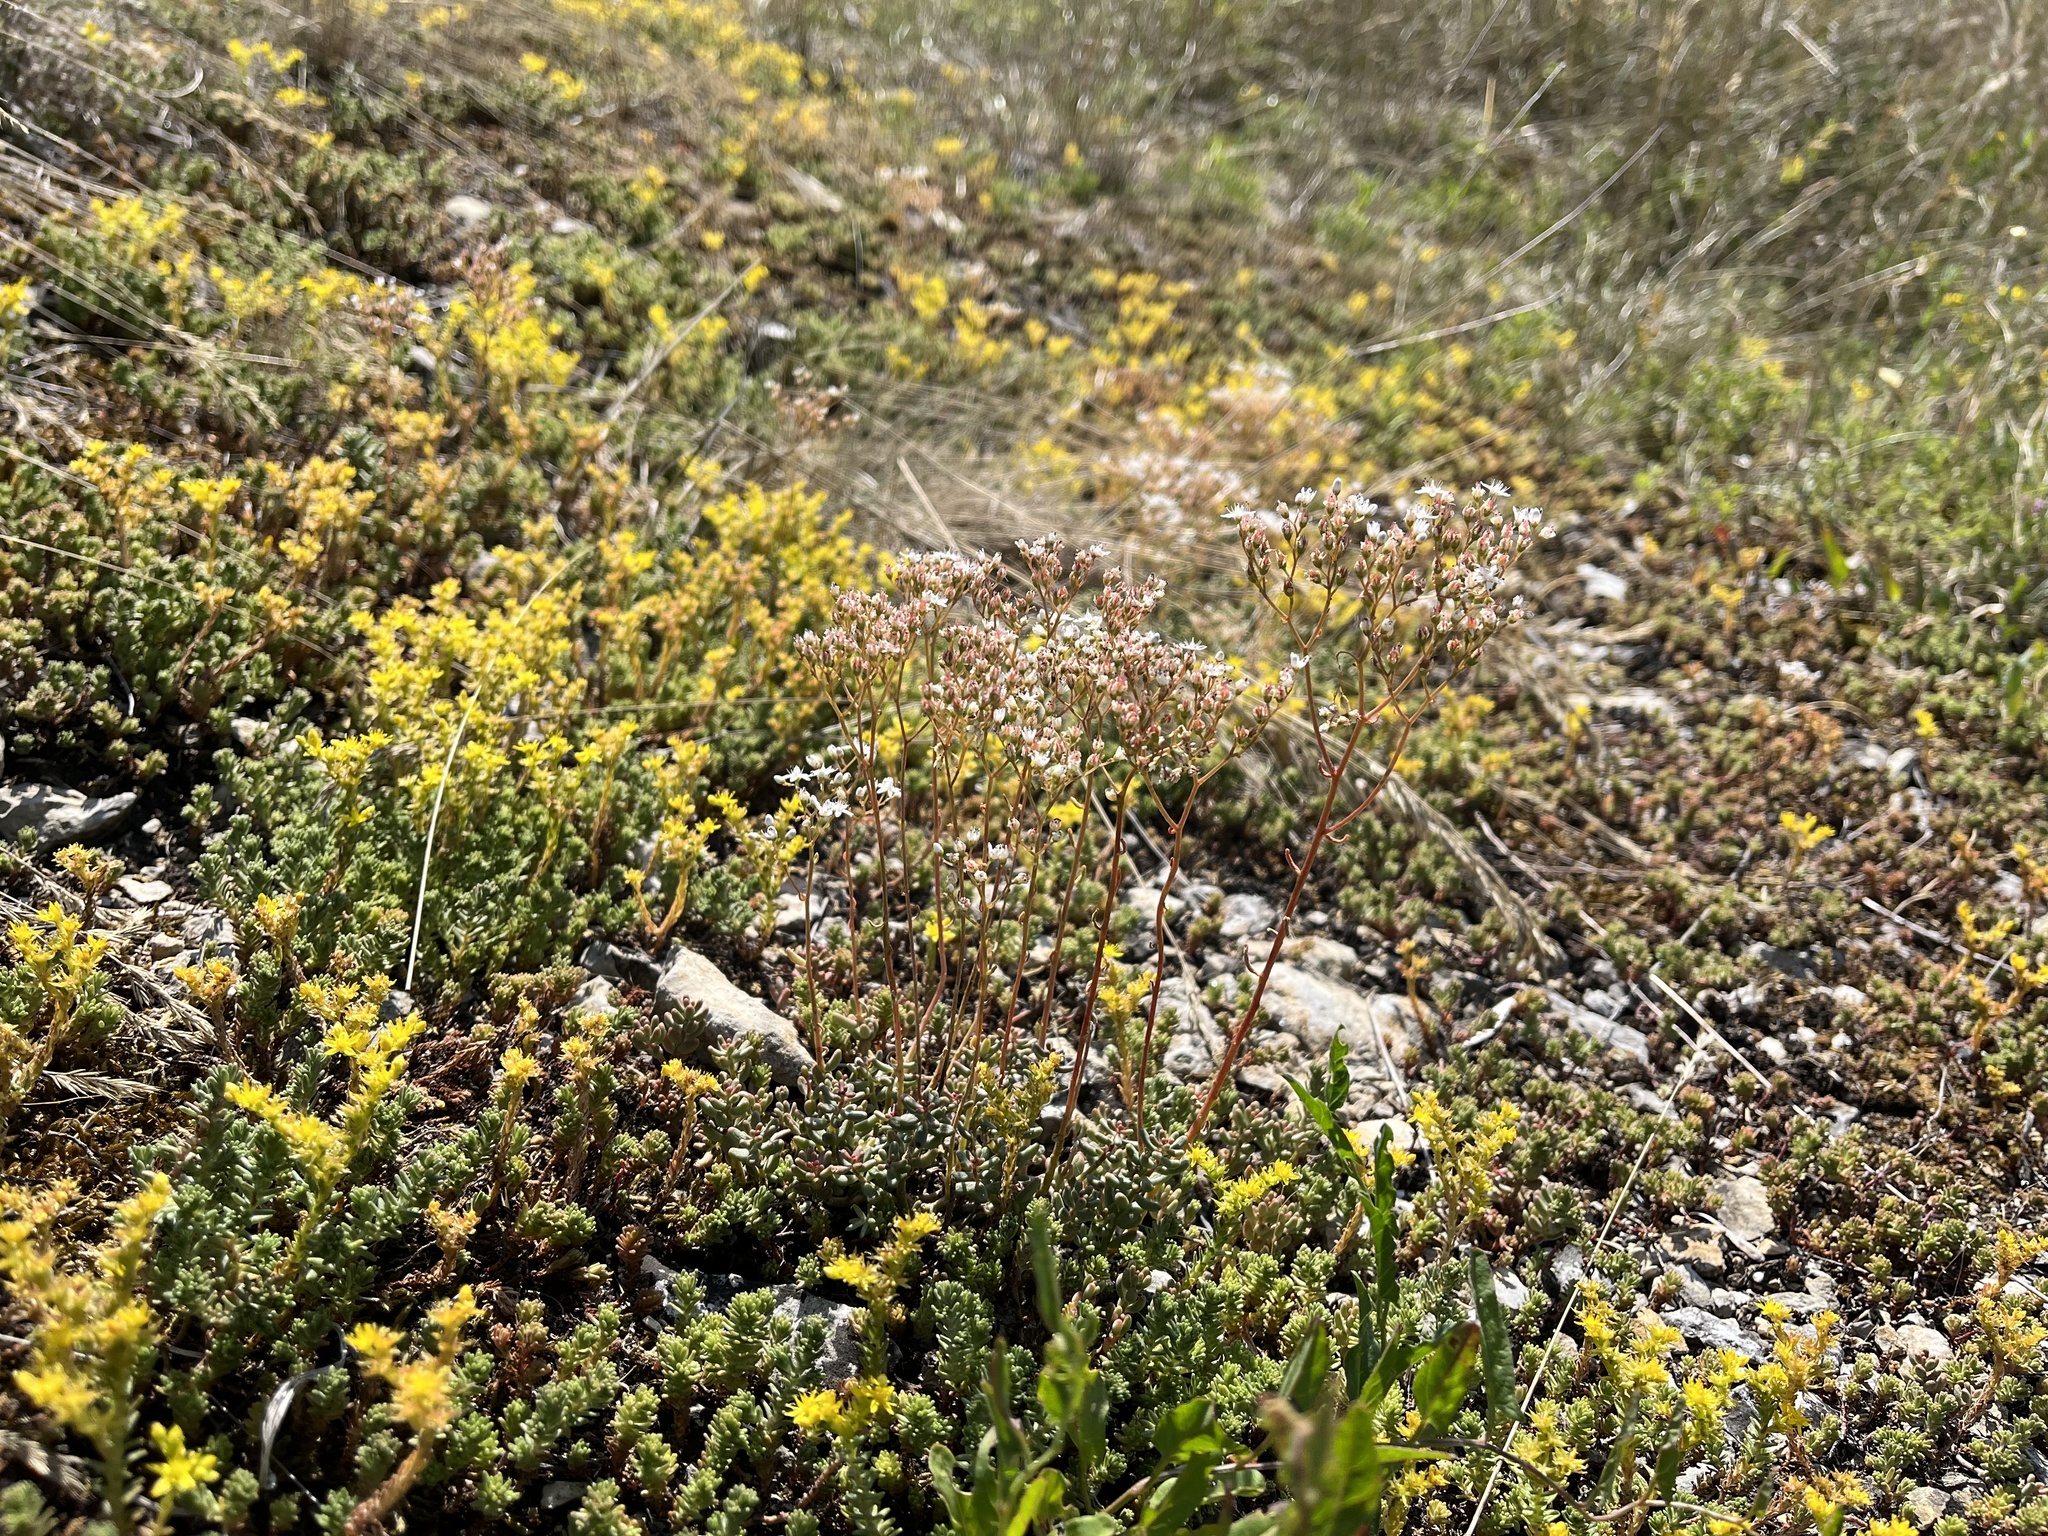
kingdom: Plantae
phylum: Tracheophyta
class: Magnoliopsida
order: Saxifragales
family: Crassulaceae
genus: Sedum
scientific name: Sedum album
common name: White stonecrop
